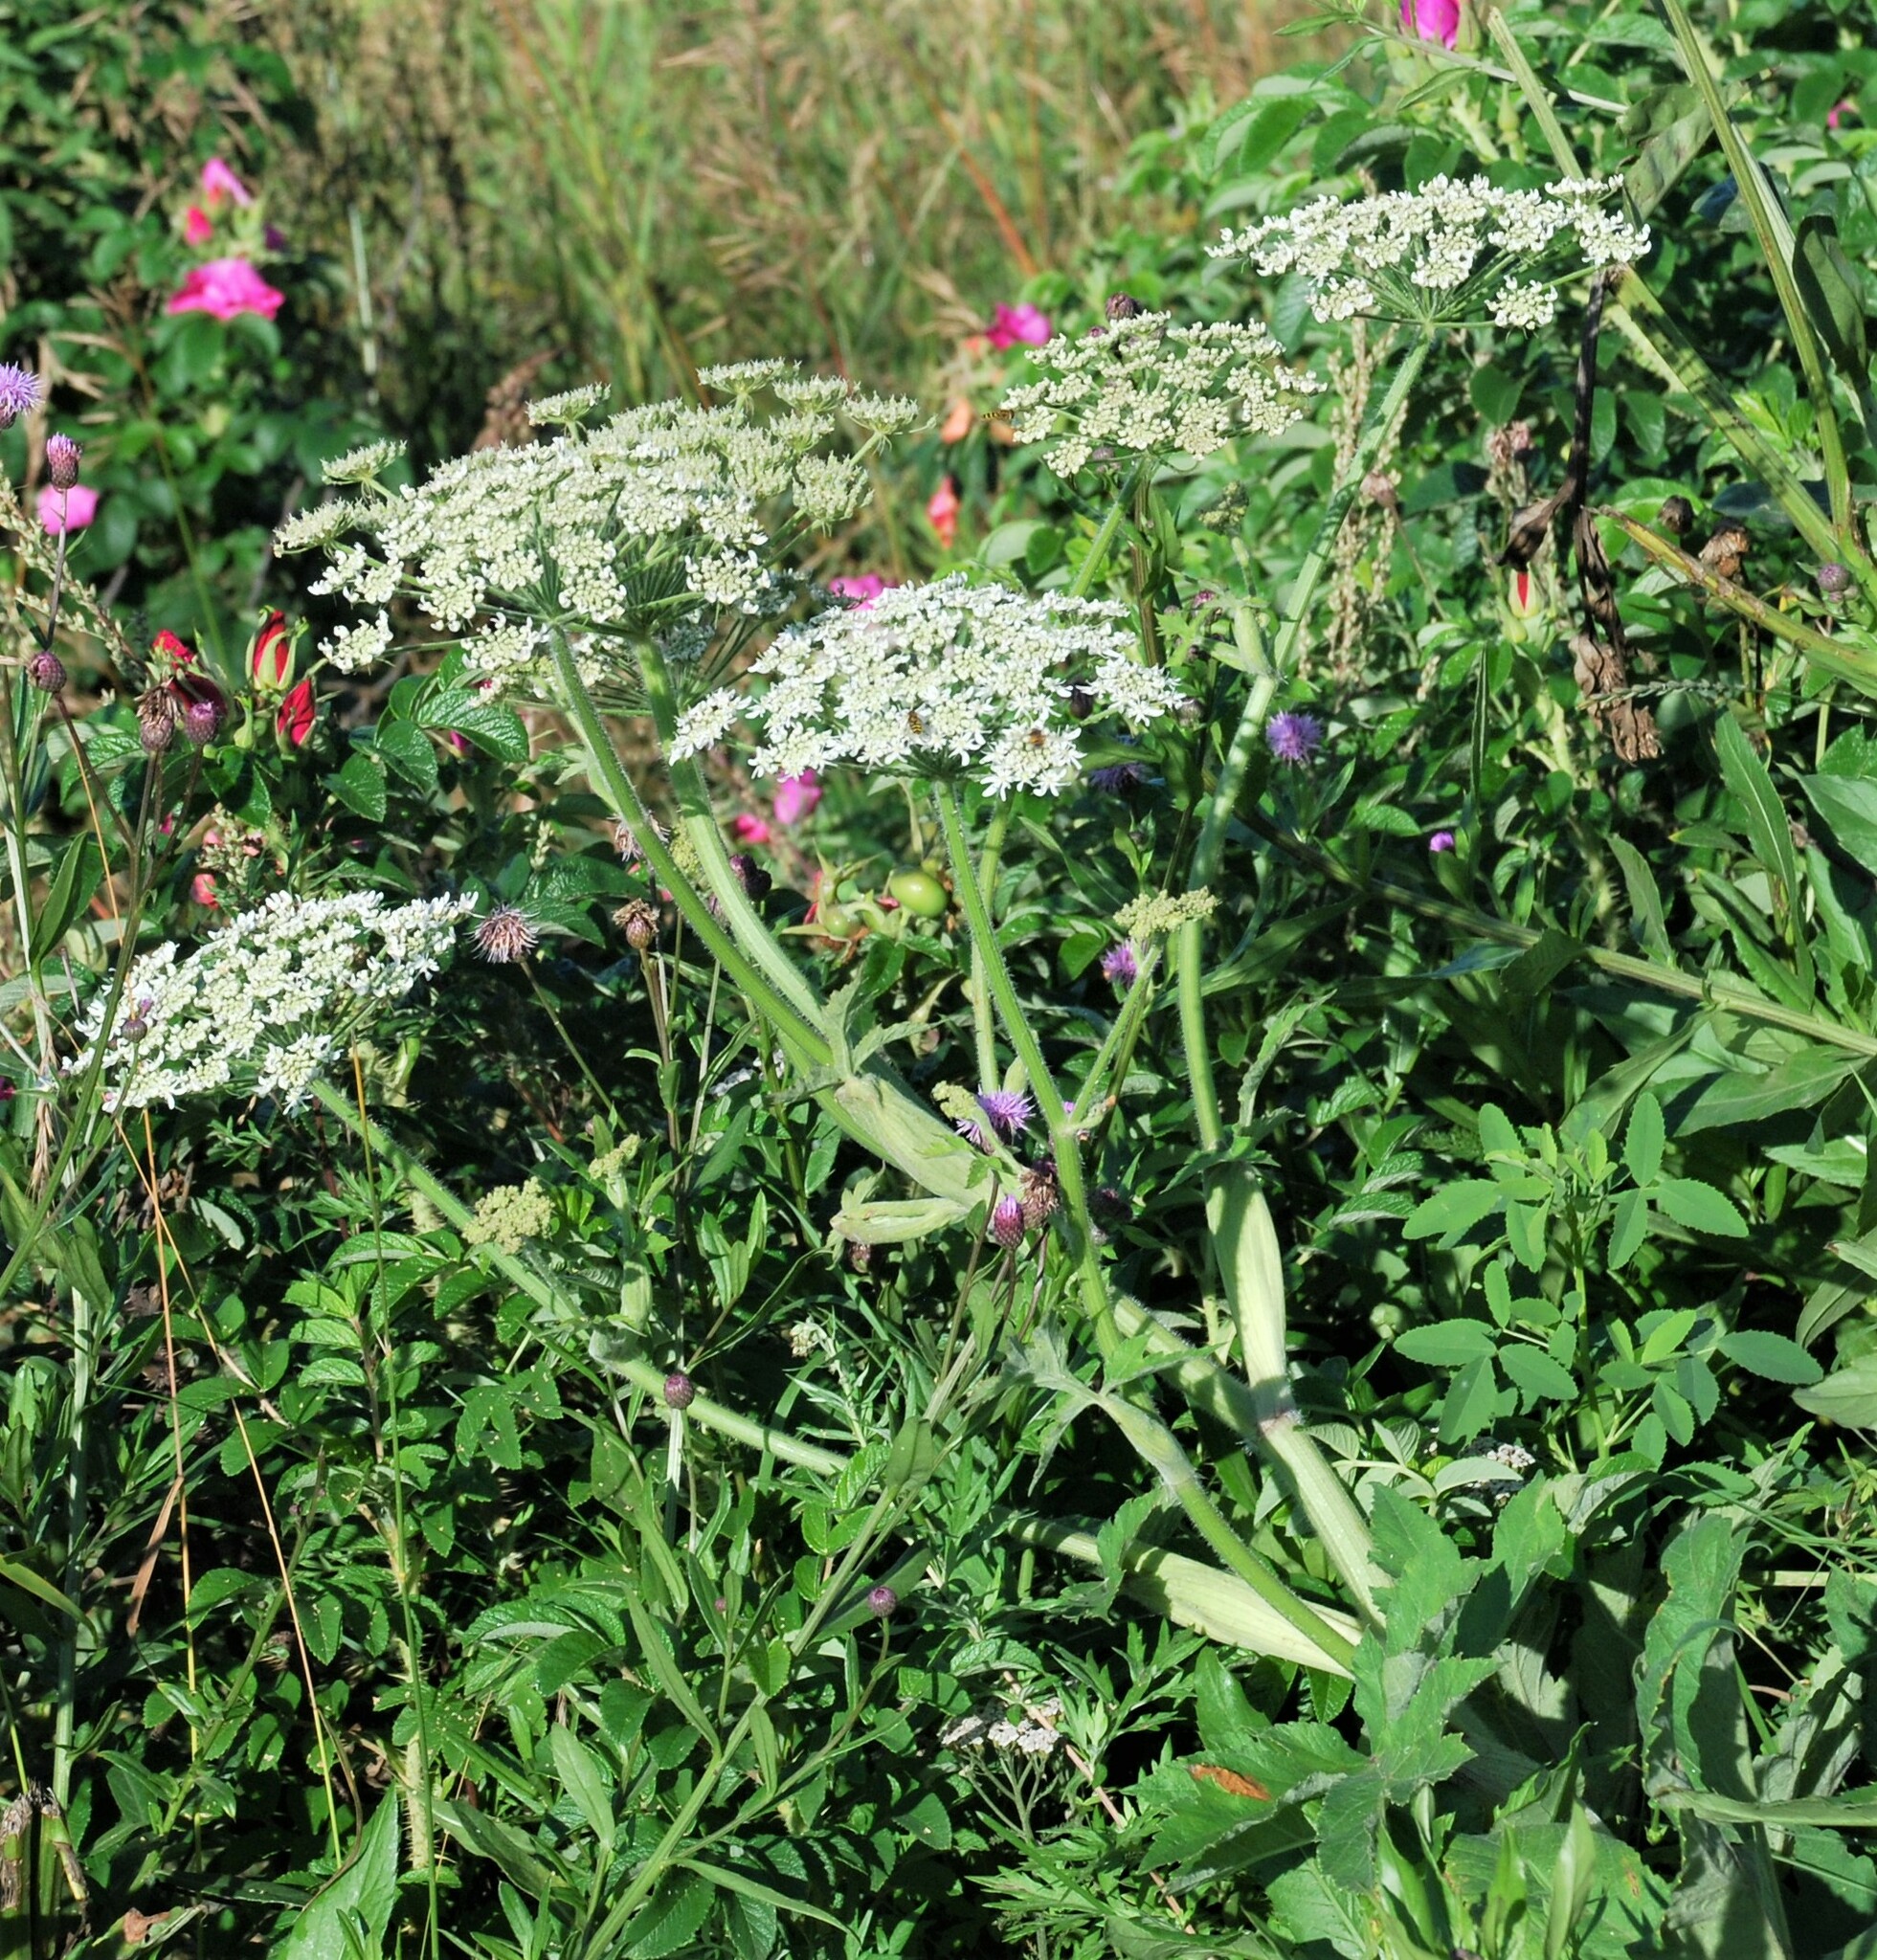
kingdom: Plantae
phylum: Tracheophyta
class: Magnoliopsida
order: Apiales
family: Apiaceae
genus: Heracleum
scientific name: Heracleum dissectum
